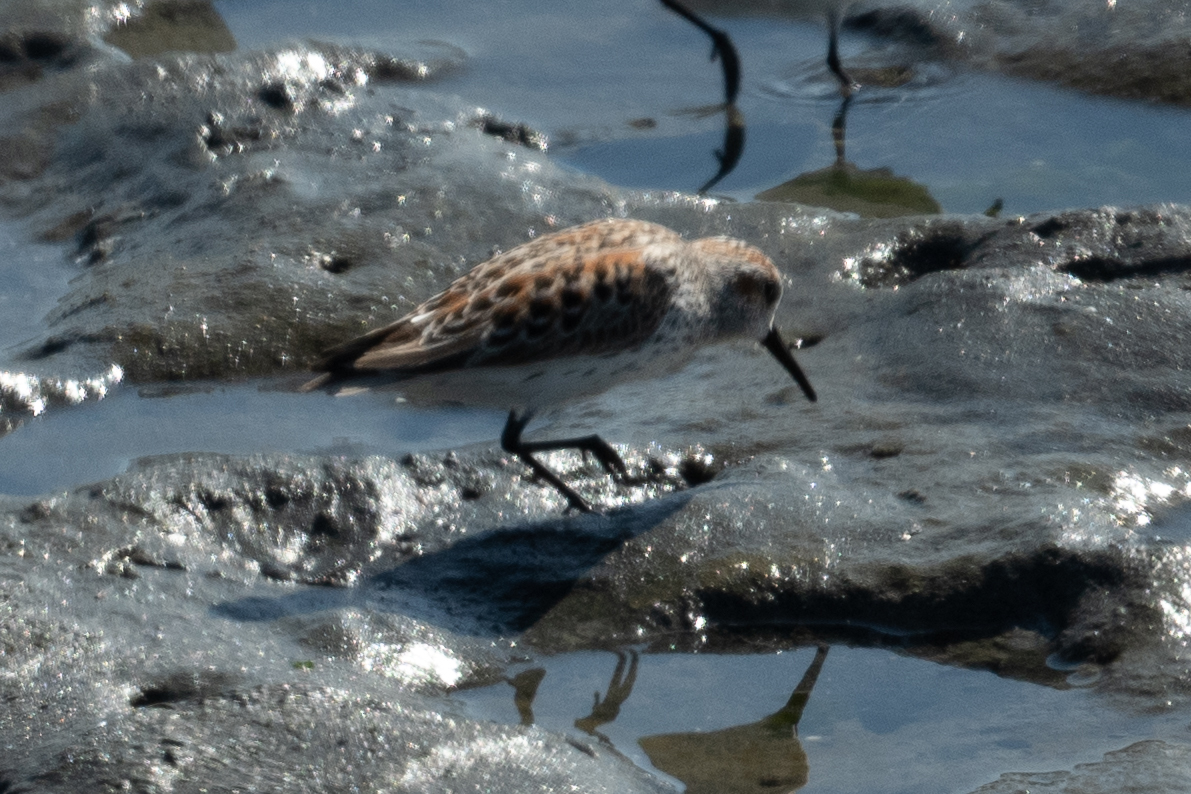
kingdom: Animalia
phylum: Chordata
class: Aves
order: Charadriiformes
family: Scolopacidae
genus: Calidris
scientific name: Calidris mauri
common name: Western sandpiper
